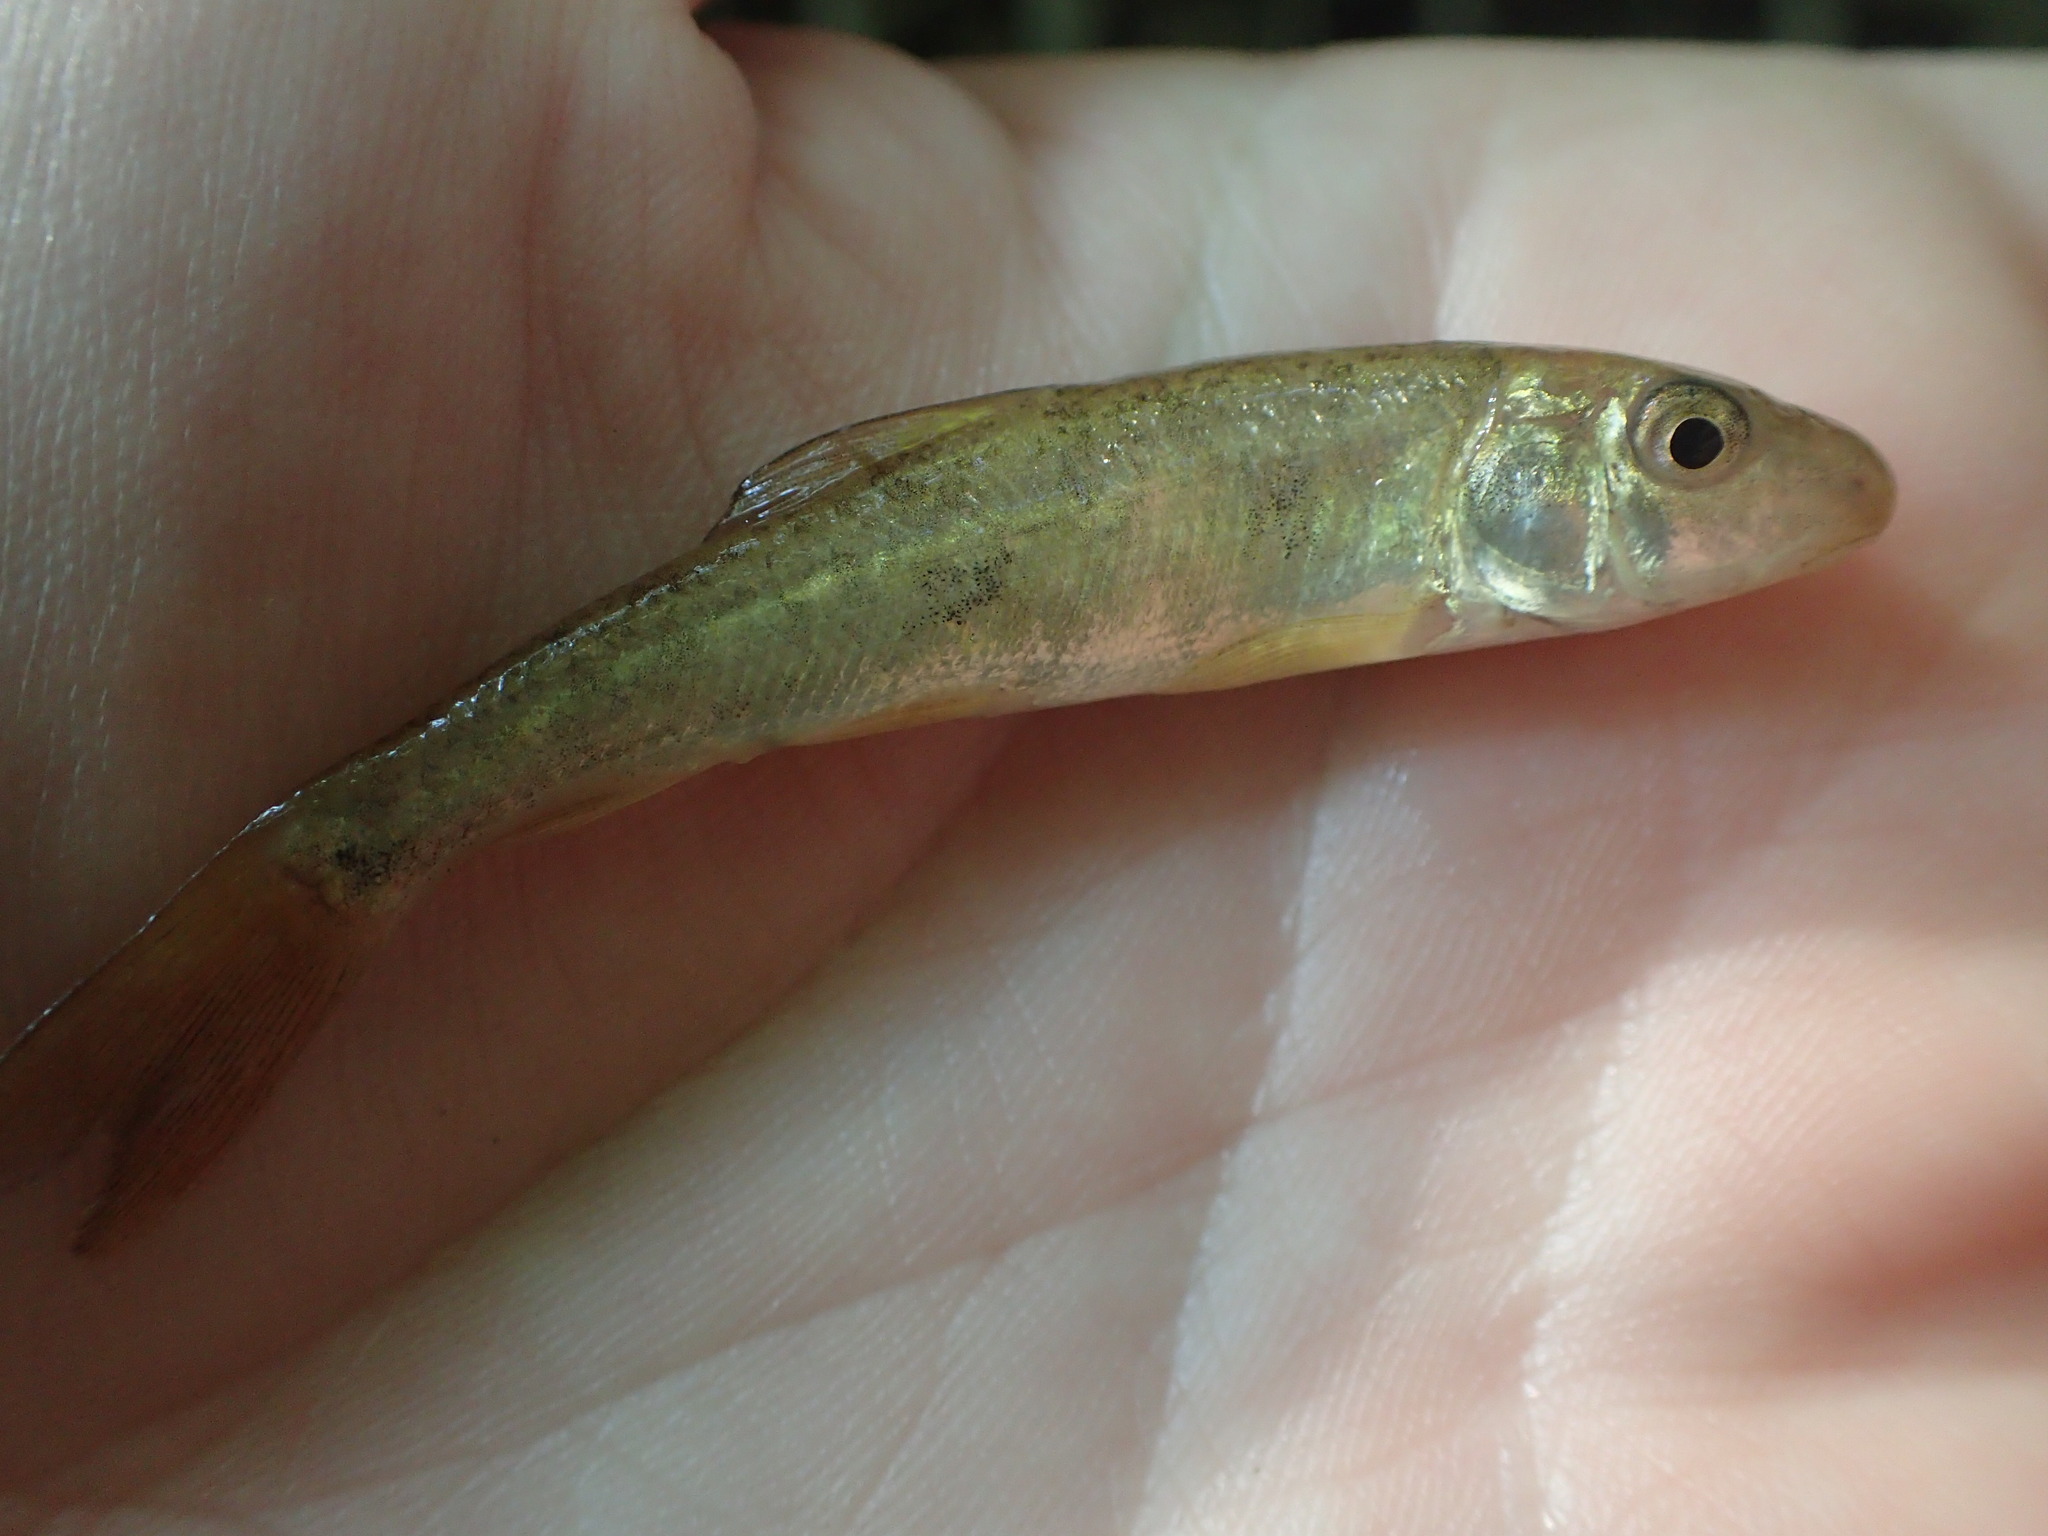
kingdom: Animalia
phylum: Chordata
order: Cypriniformes
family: Catostomidae
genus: Catostomus
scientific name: Catostomus commersonii
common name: White sucker
